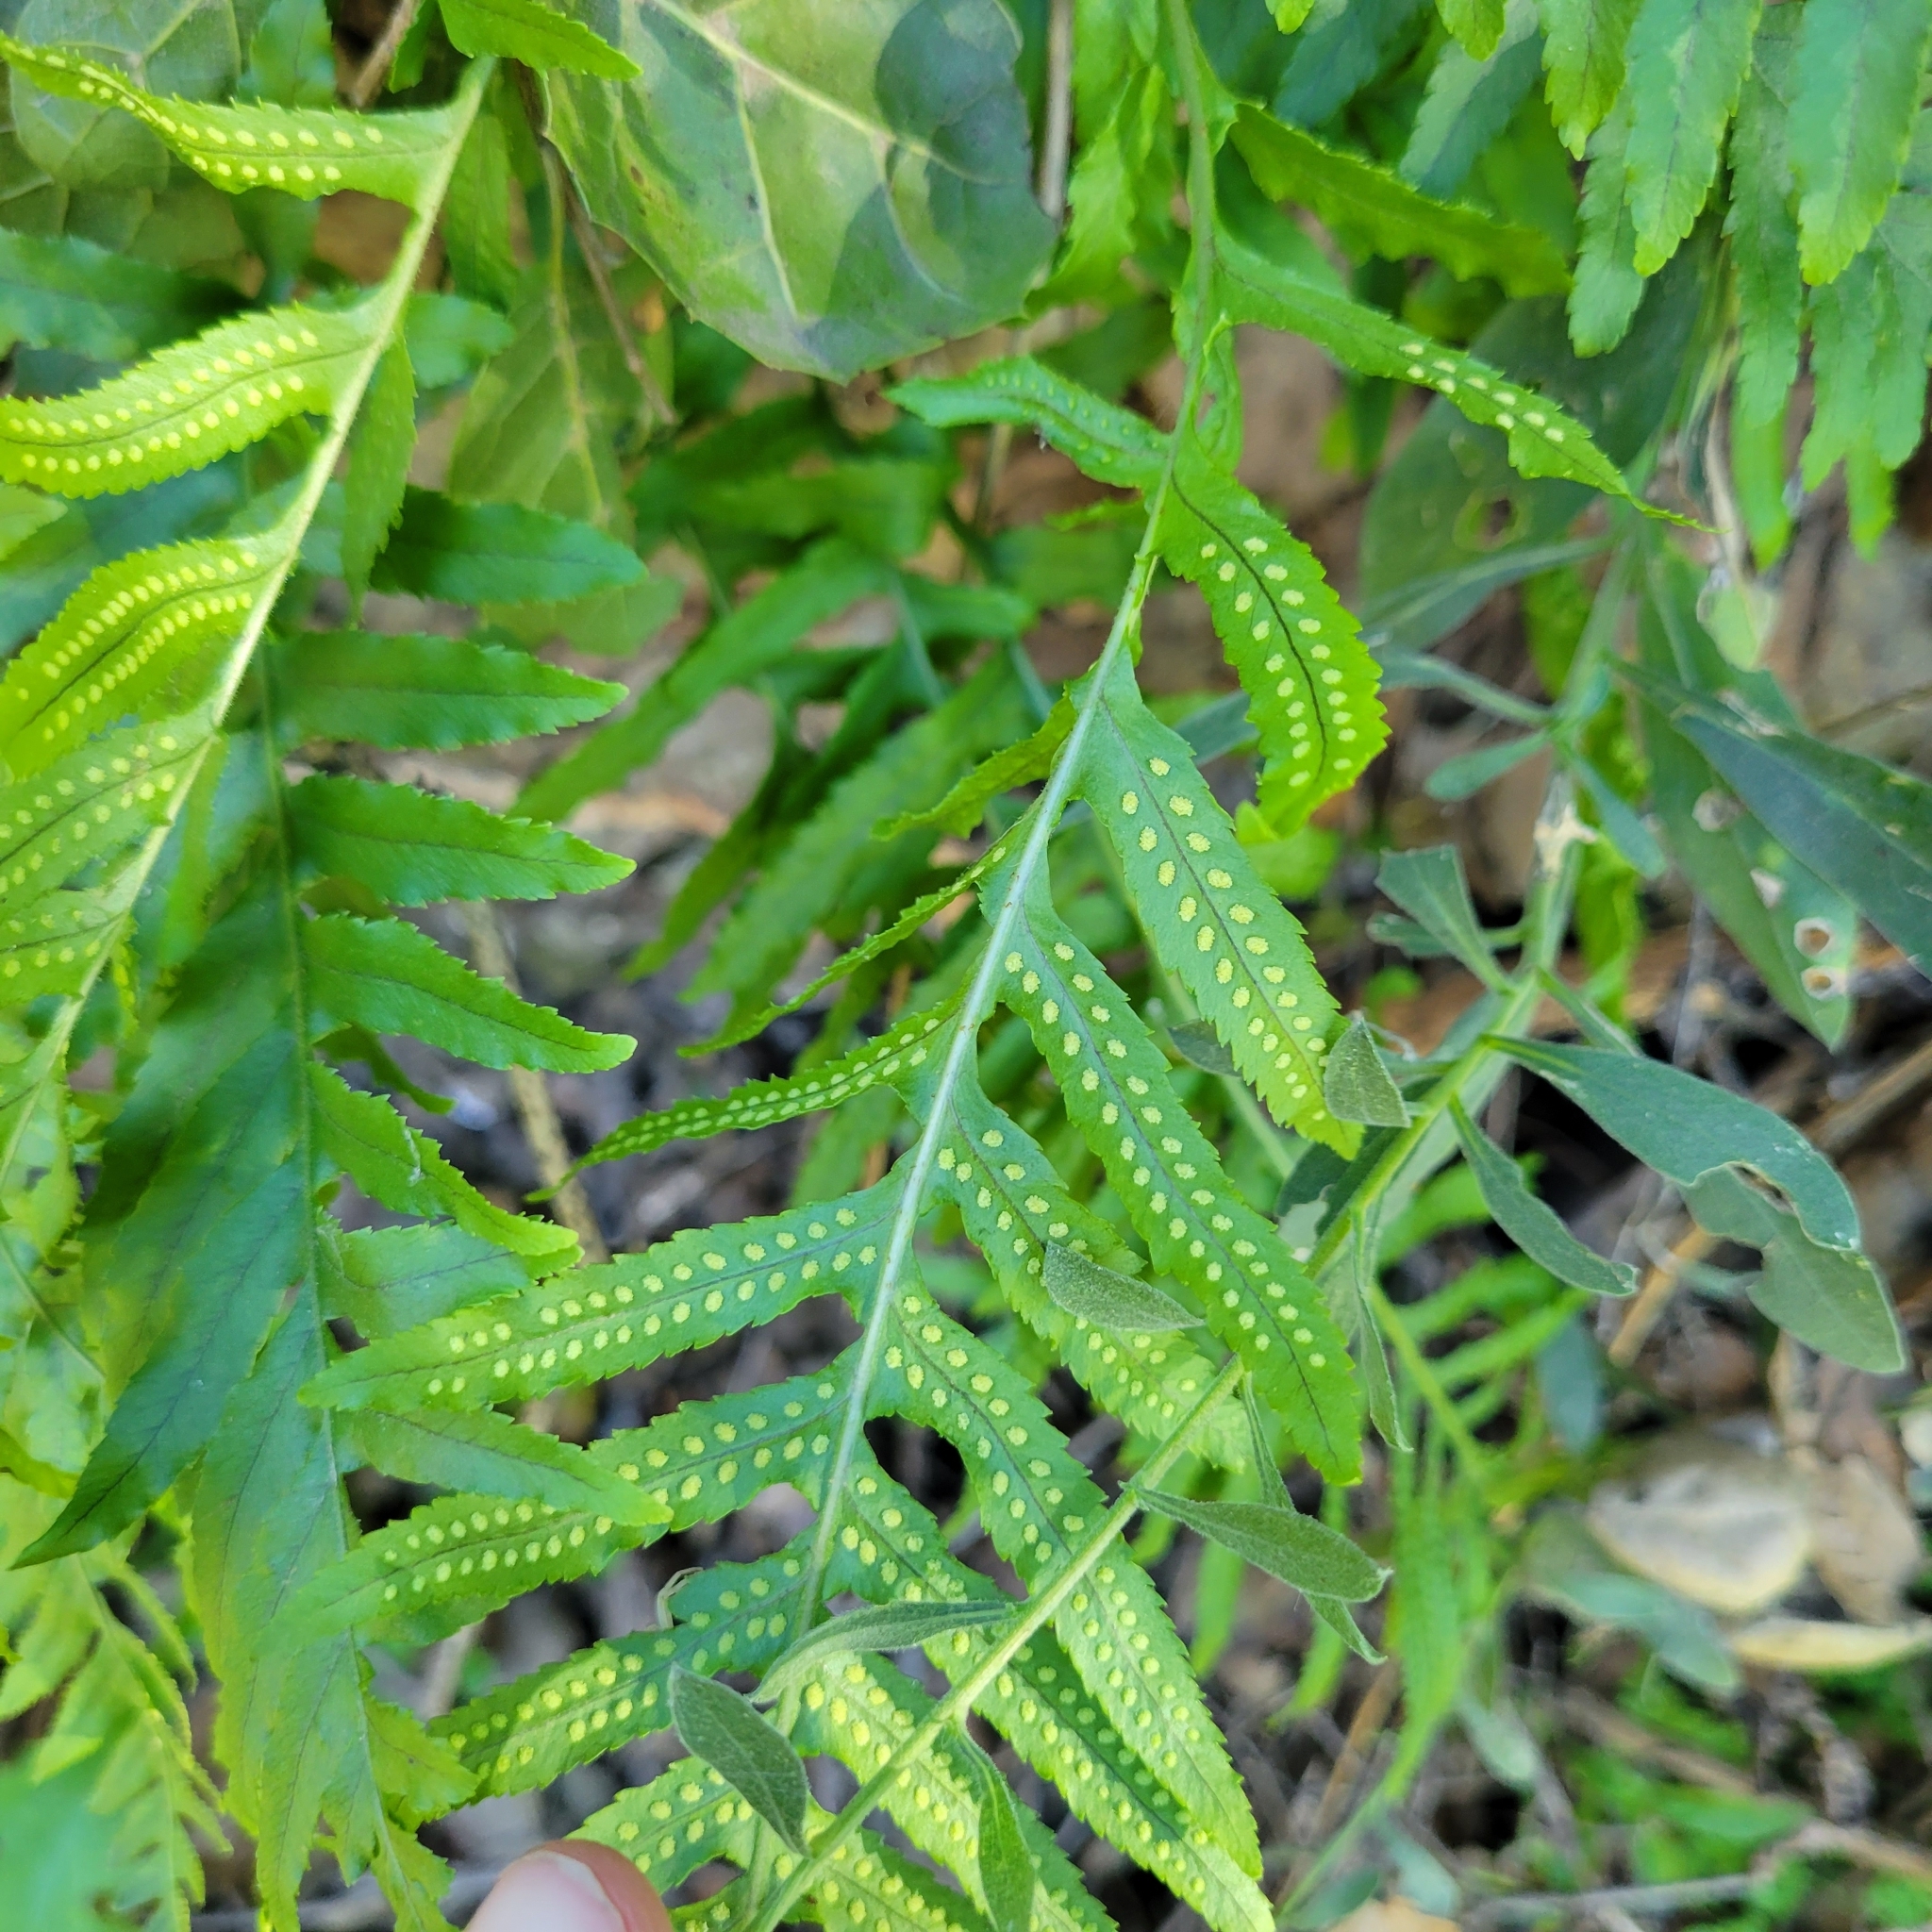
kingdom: Plantae
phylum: Tracheophyta
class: Polypodiopsida
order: Polypodiales
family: Polypodiaceae
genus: Polypodium
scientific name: Polypodium californicum
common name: California polypody
